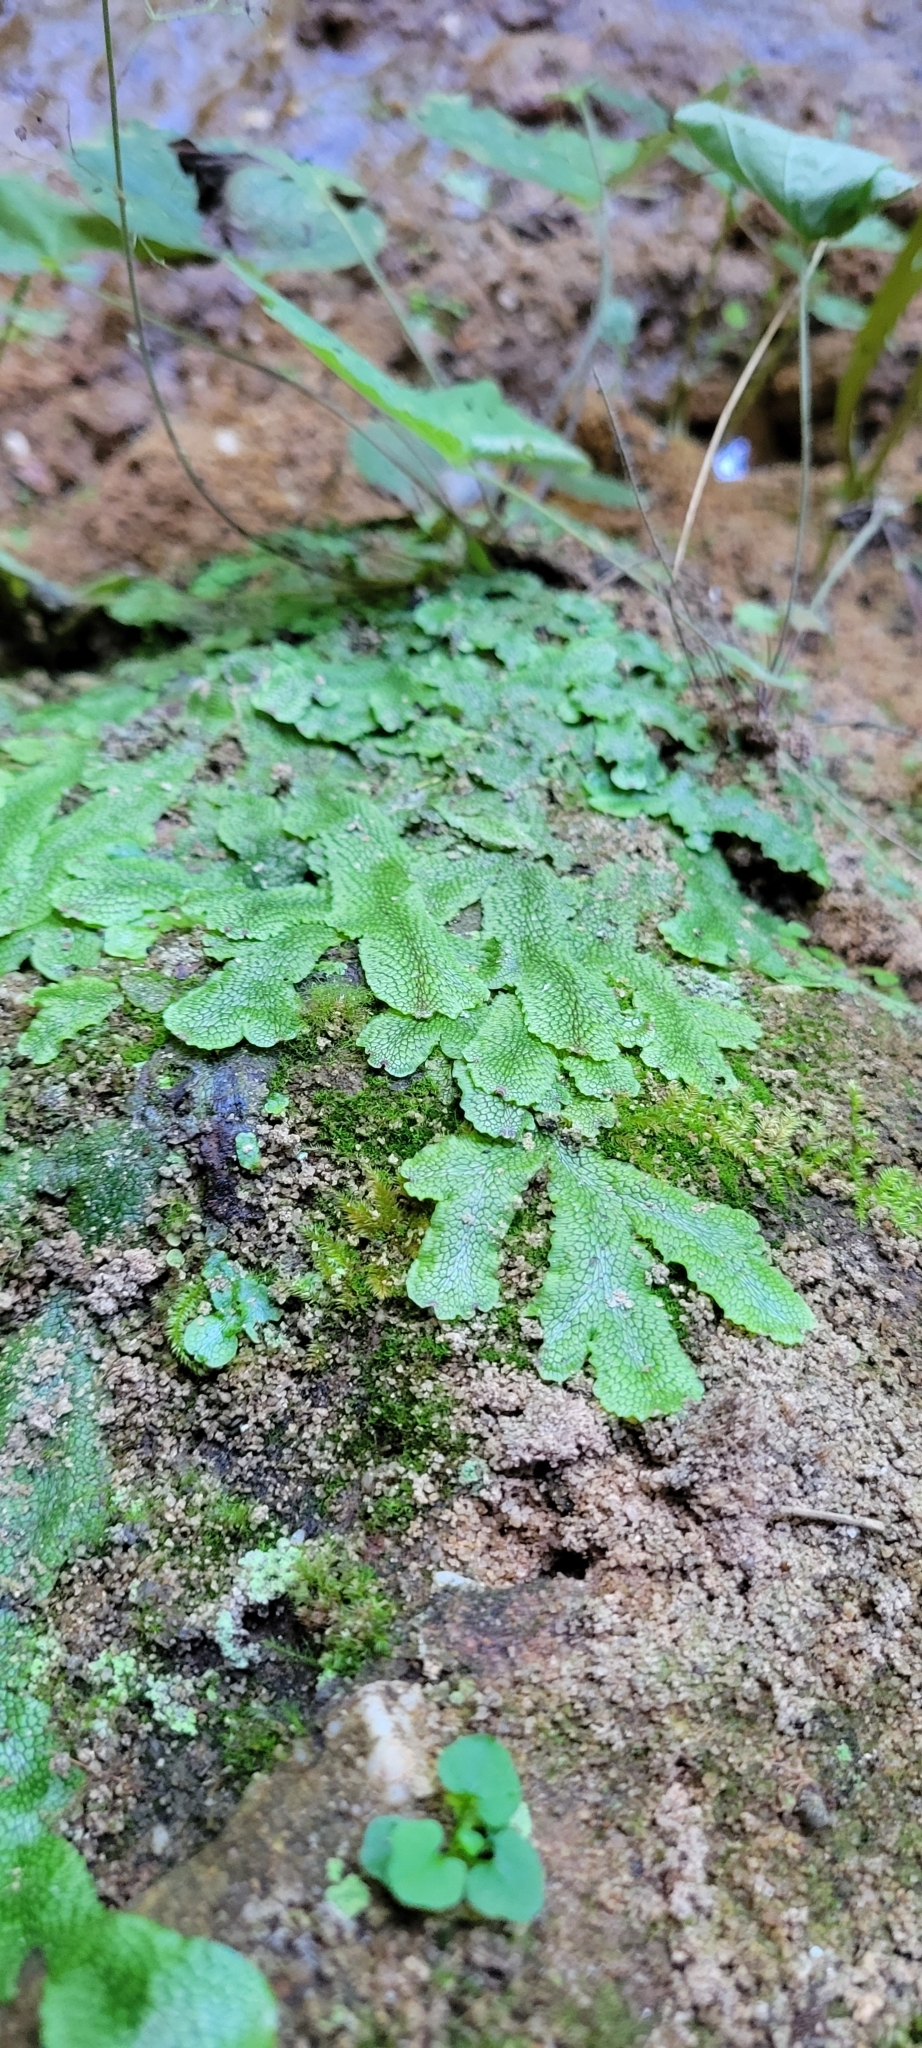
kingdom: Plantae
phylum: Marchantiophyta
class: Marchantiopsida
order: Marchantiales
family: Conocephalaceae
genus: Conocephalum
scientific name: Conocephalum salebrosum
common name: Cat-tongue liverwort
